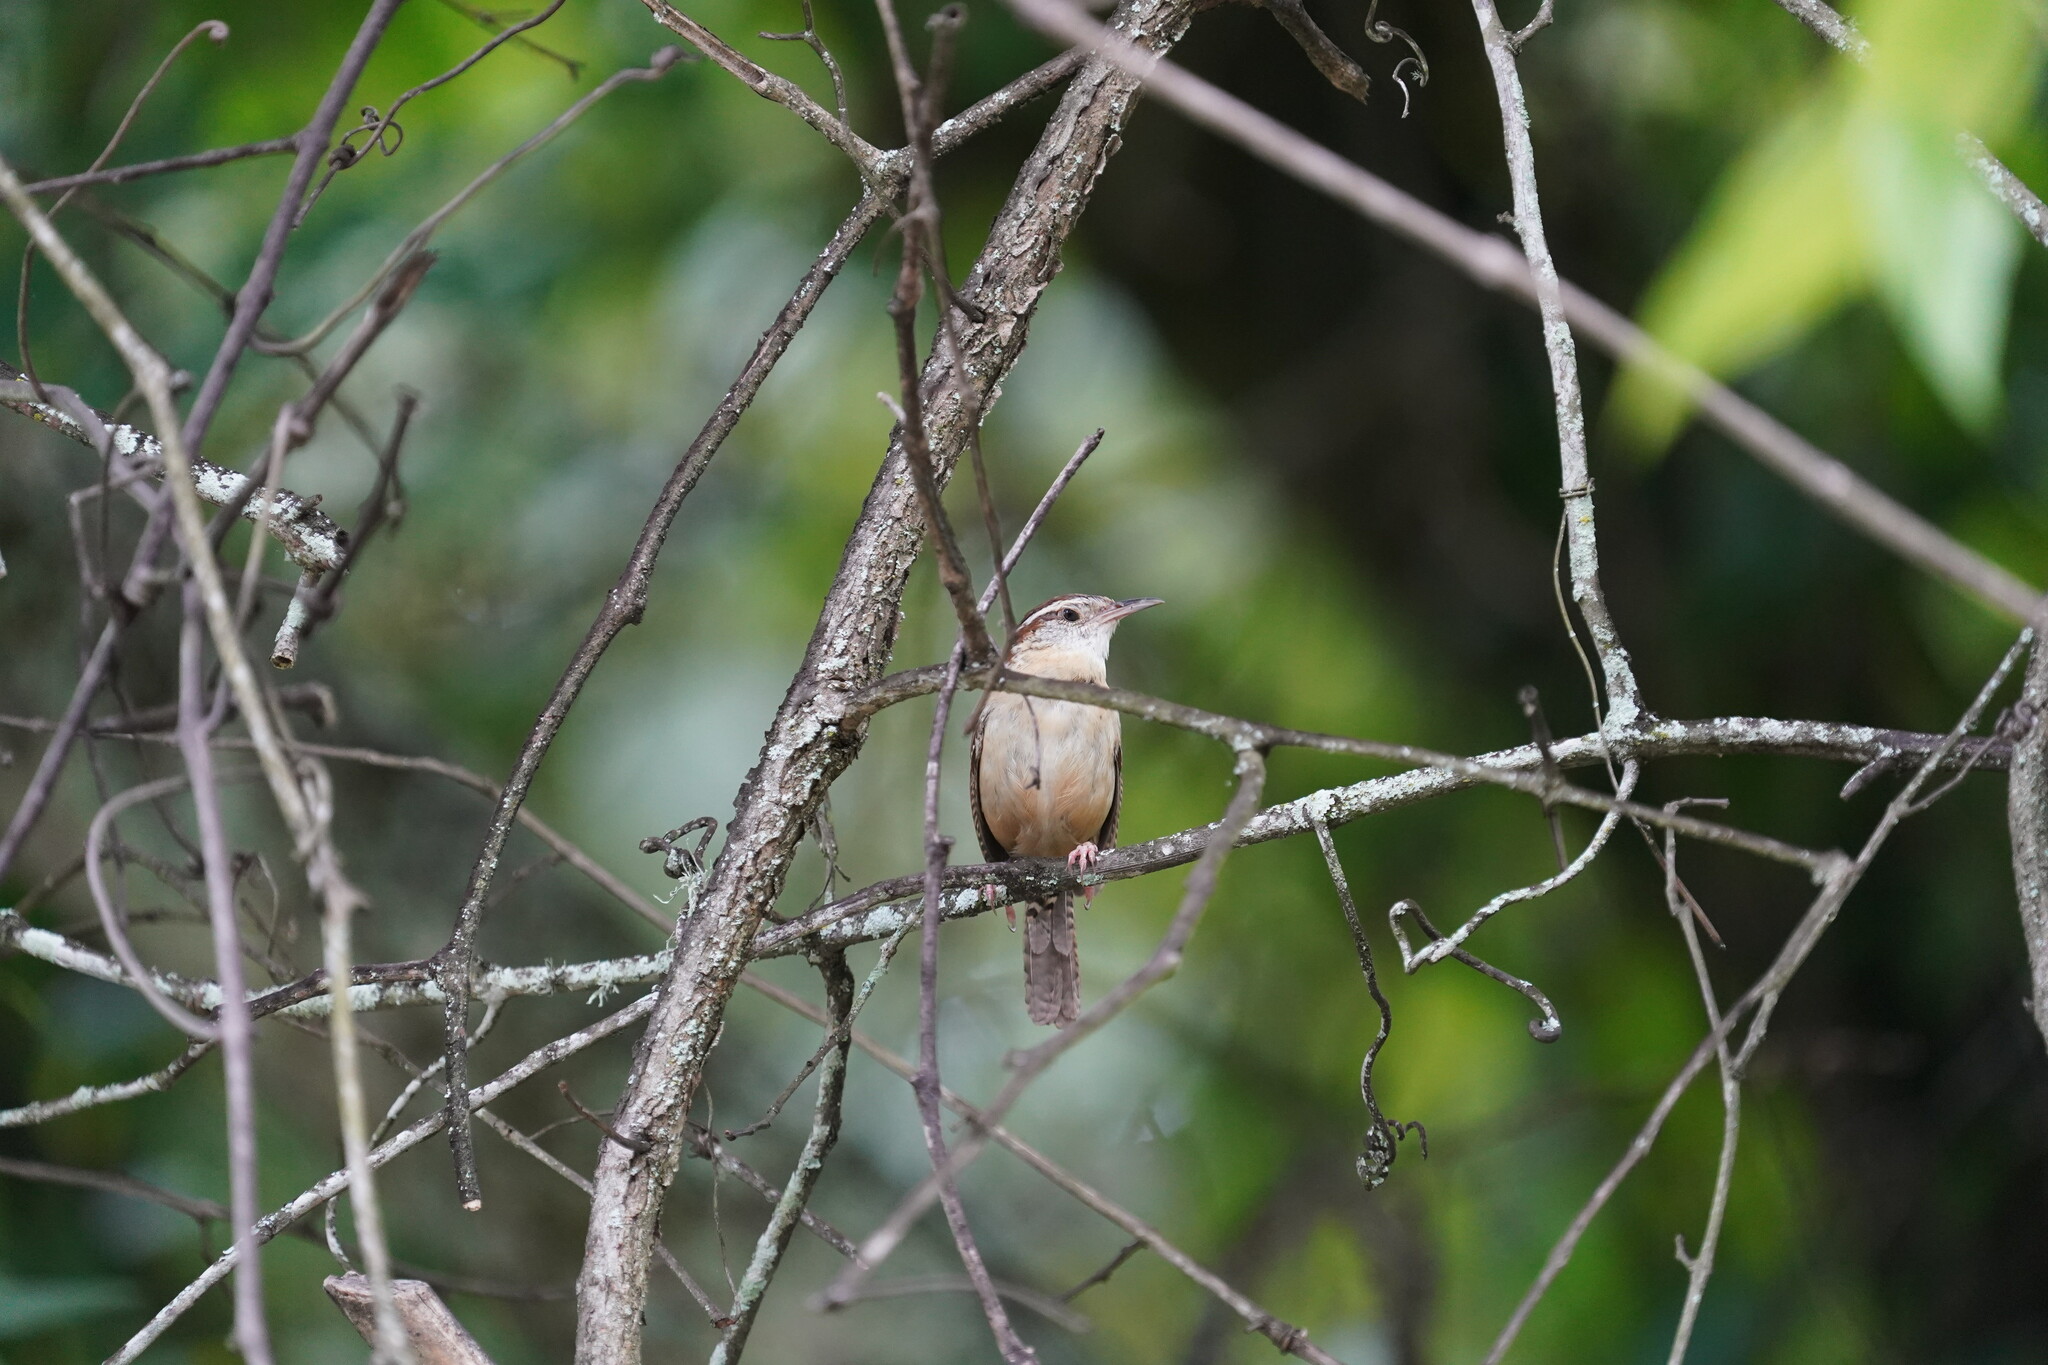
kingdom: Animalia
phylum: Chordata
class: Aves
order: Passeriformes
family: Troglodytidae
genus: Thryothorus
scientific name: Thryothorus ludovicianus
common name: Carolina wren
